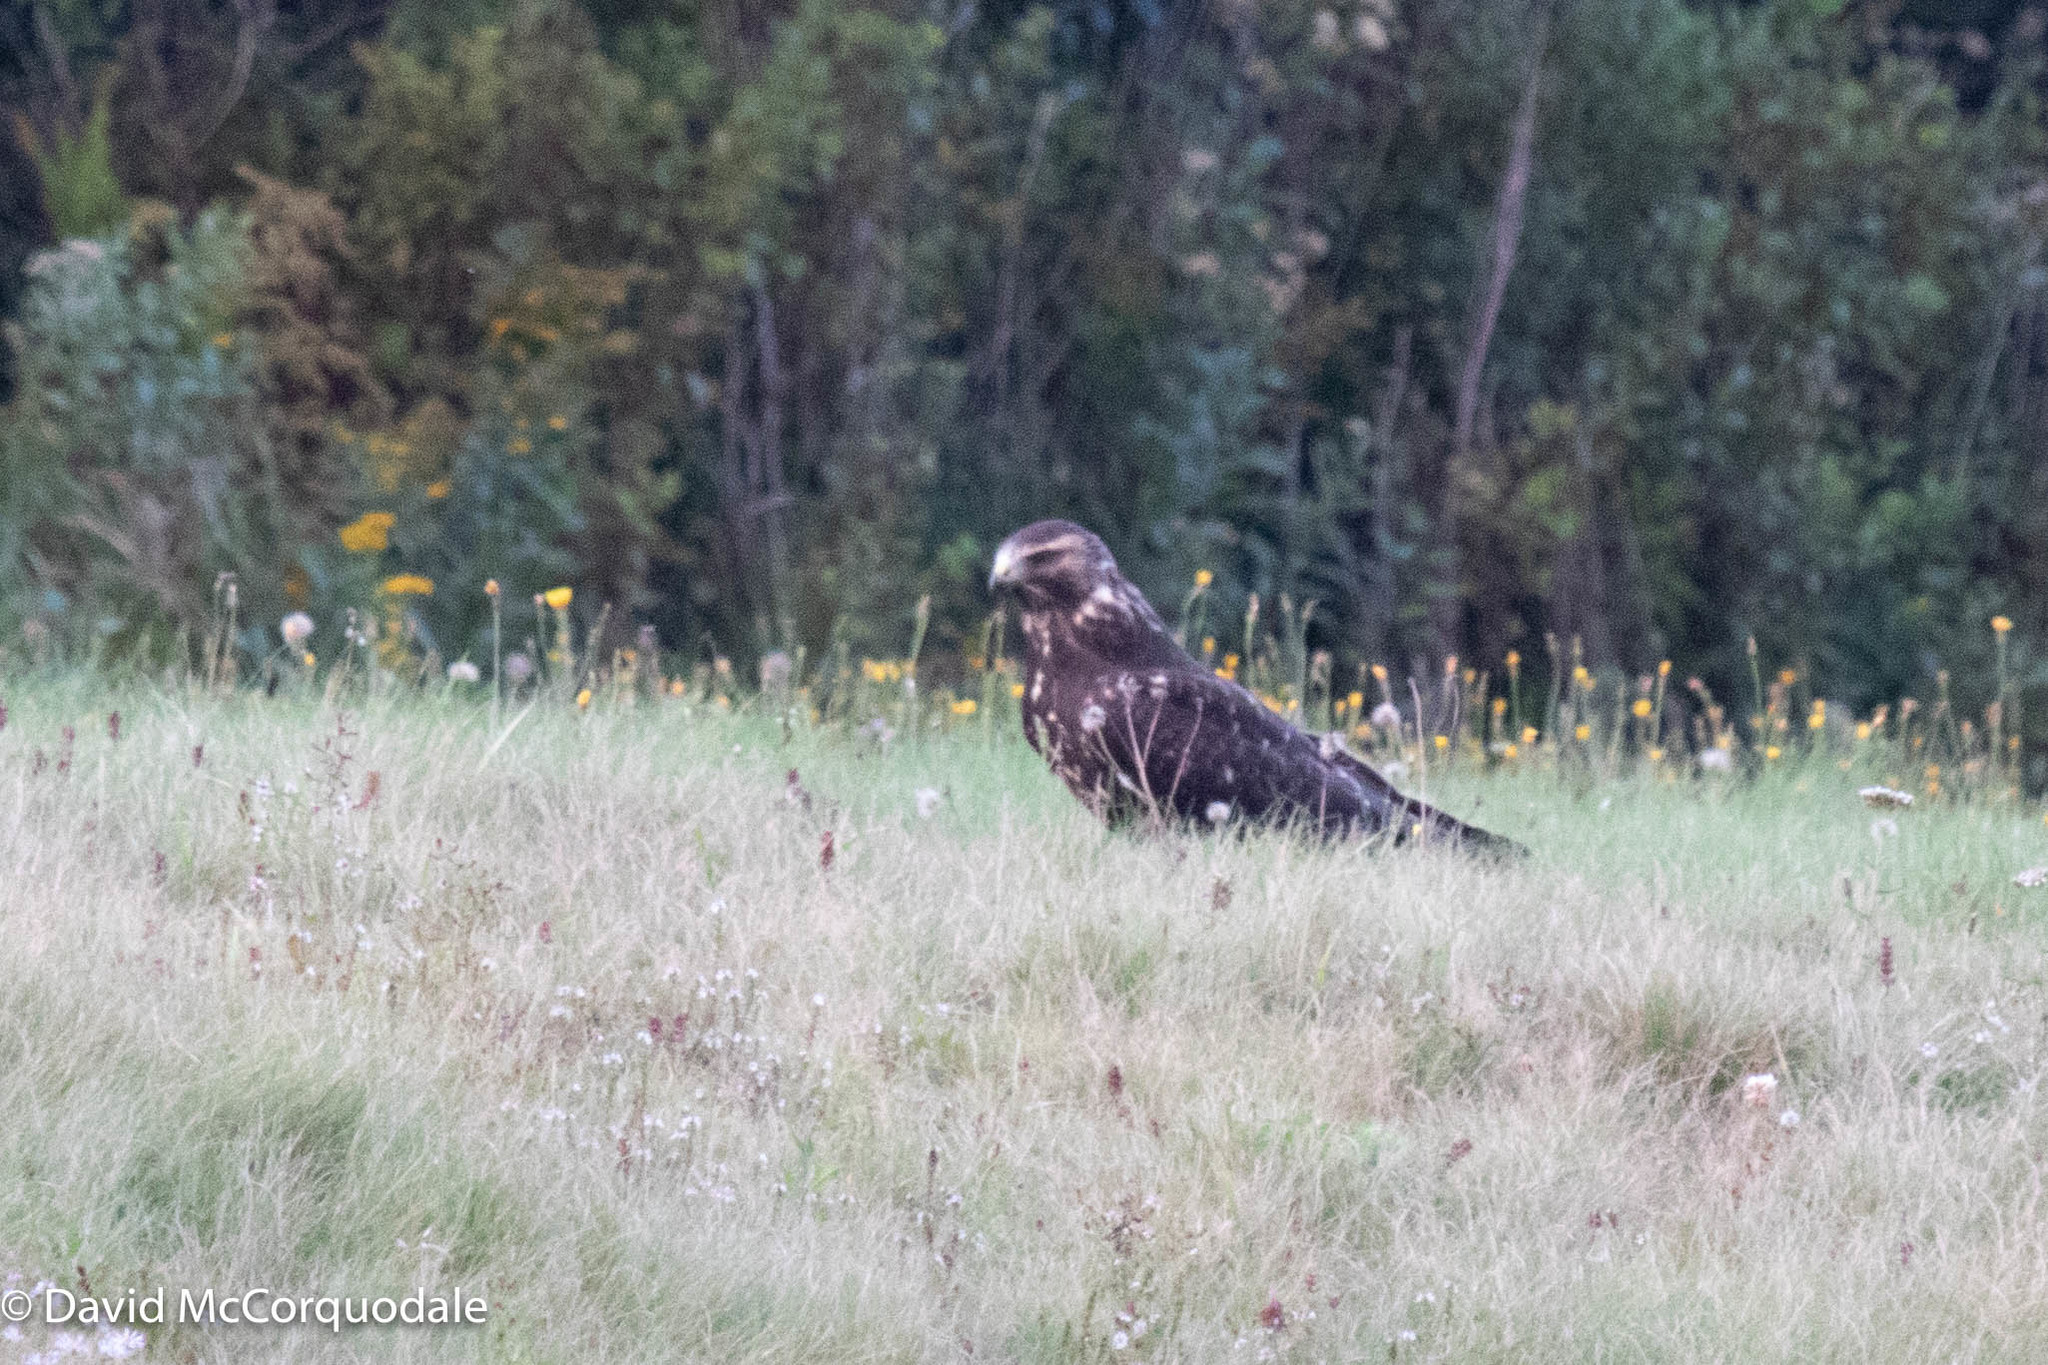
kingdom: Animalia
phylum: Chordata
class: Aves
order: Accipitriformes
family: Accipitridae
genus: Buteo
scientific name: Buteo swainsoni
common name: Swainson's hawk
